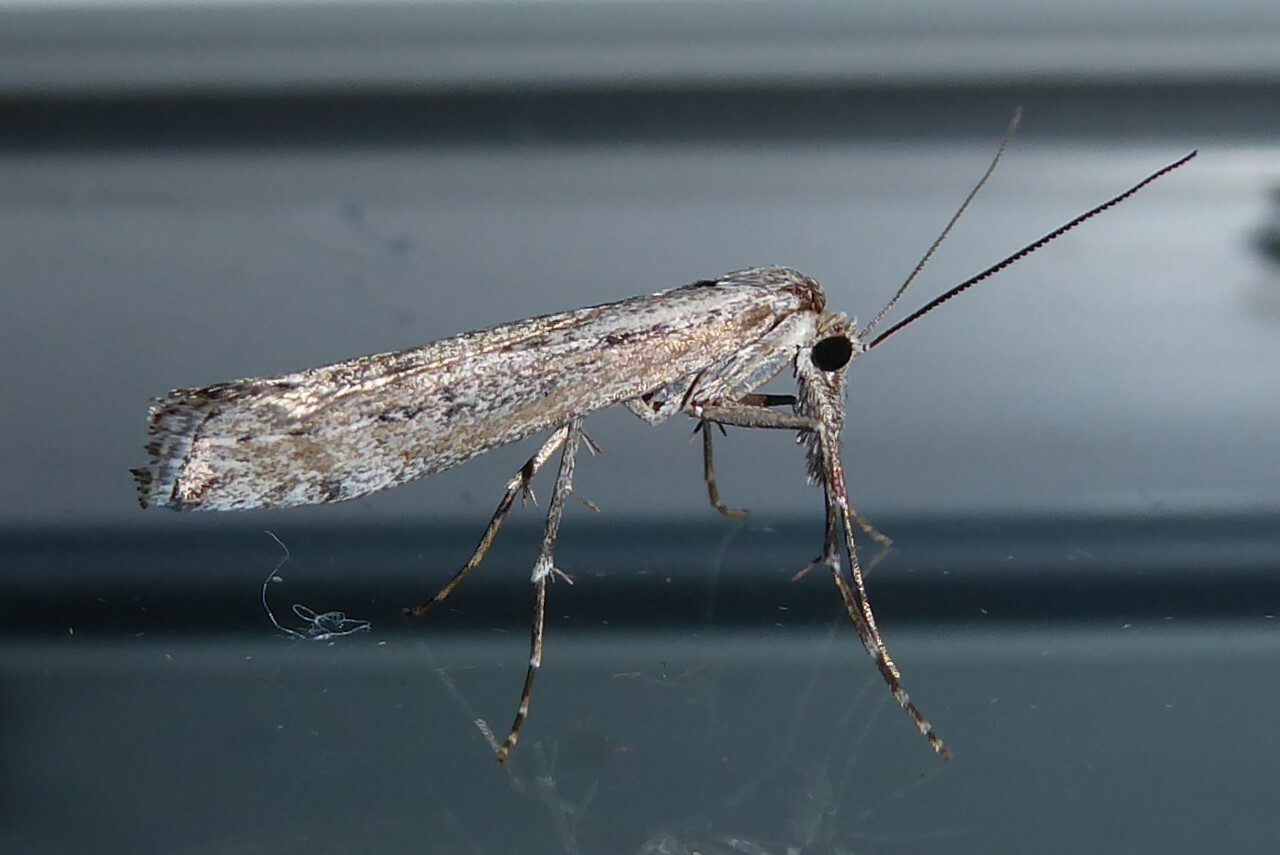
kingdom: Animalia
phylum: Arthropoda
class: Insecta
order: Lepidoptera
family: Crambidae
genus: Orocrambus
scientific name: Orocrambus cyclopicus
